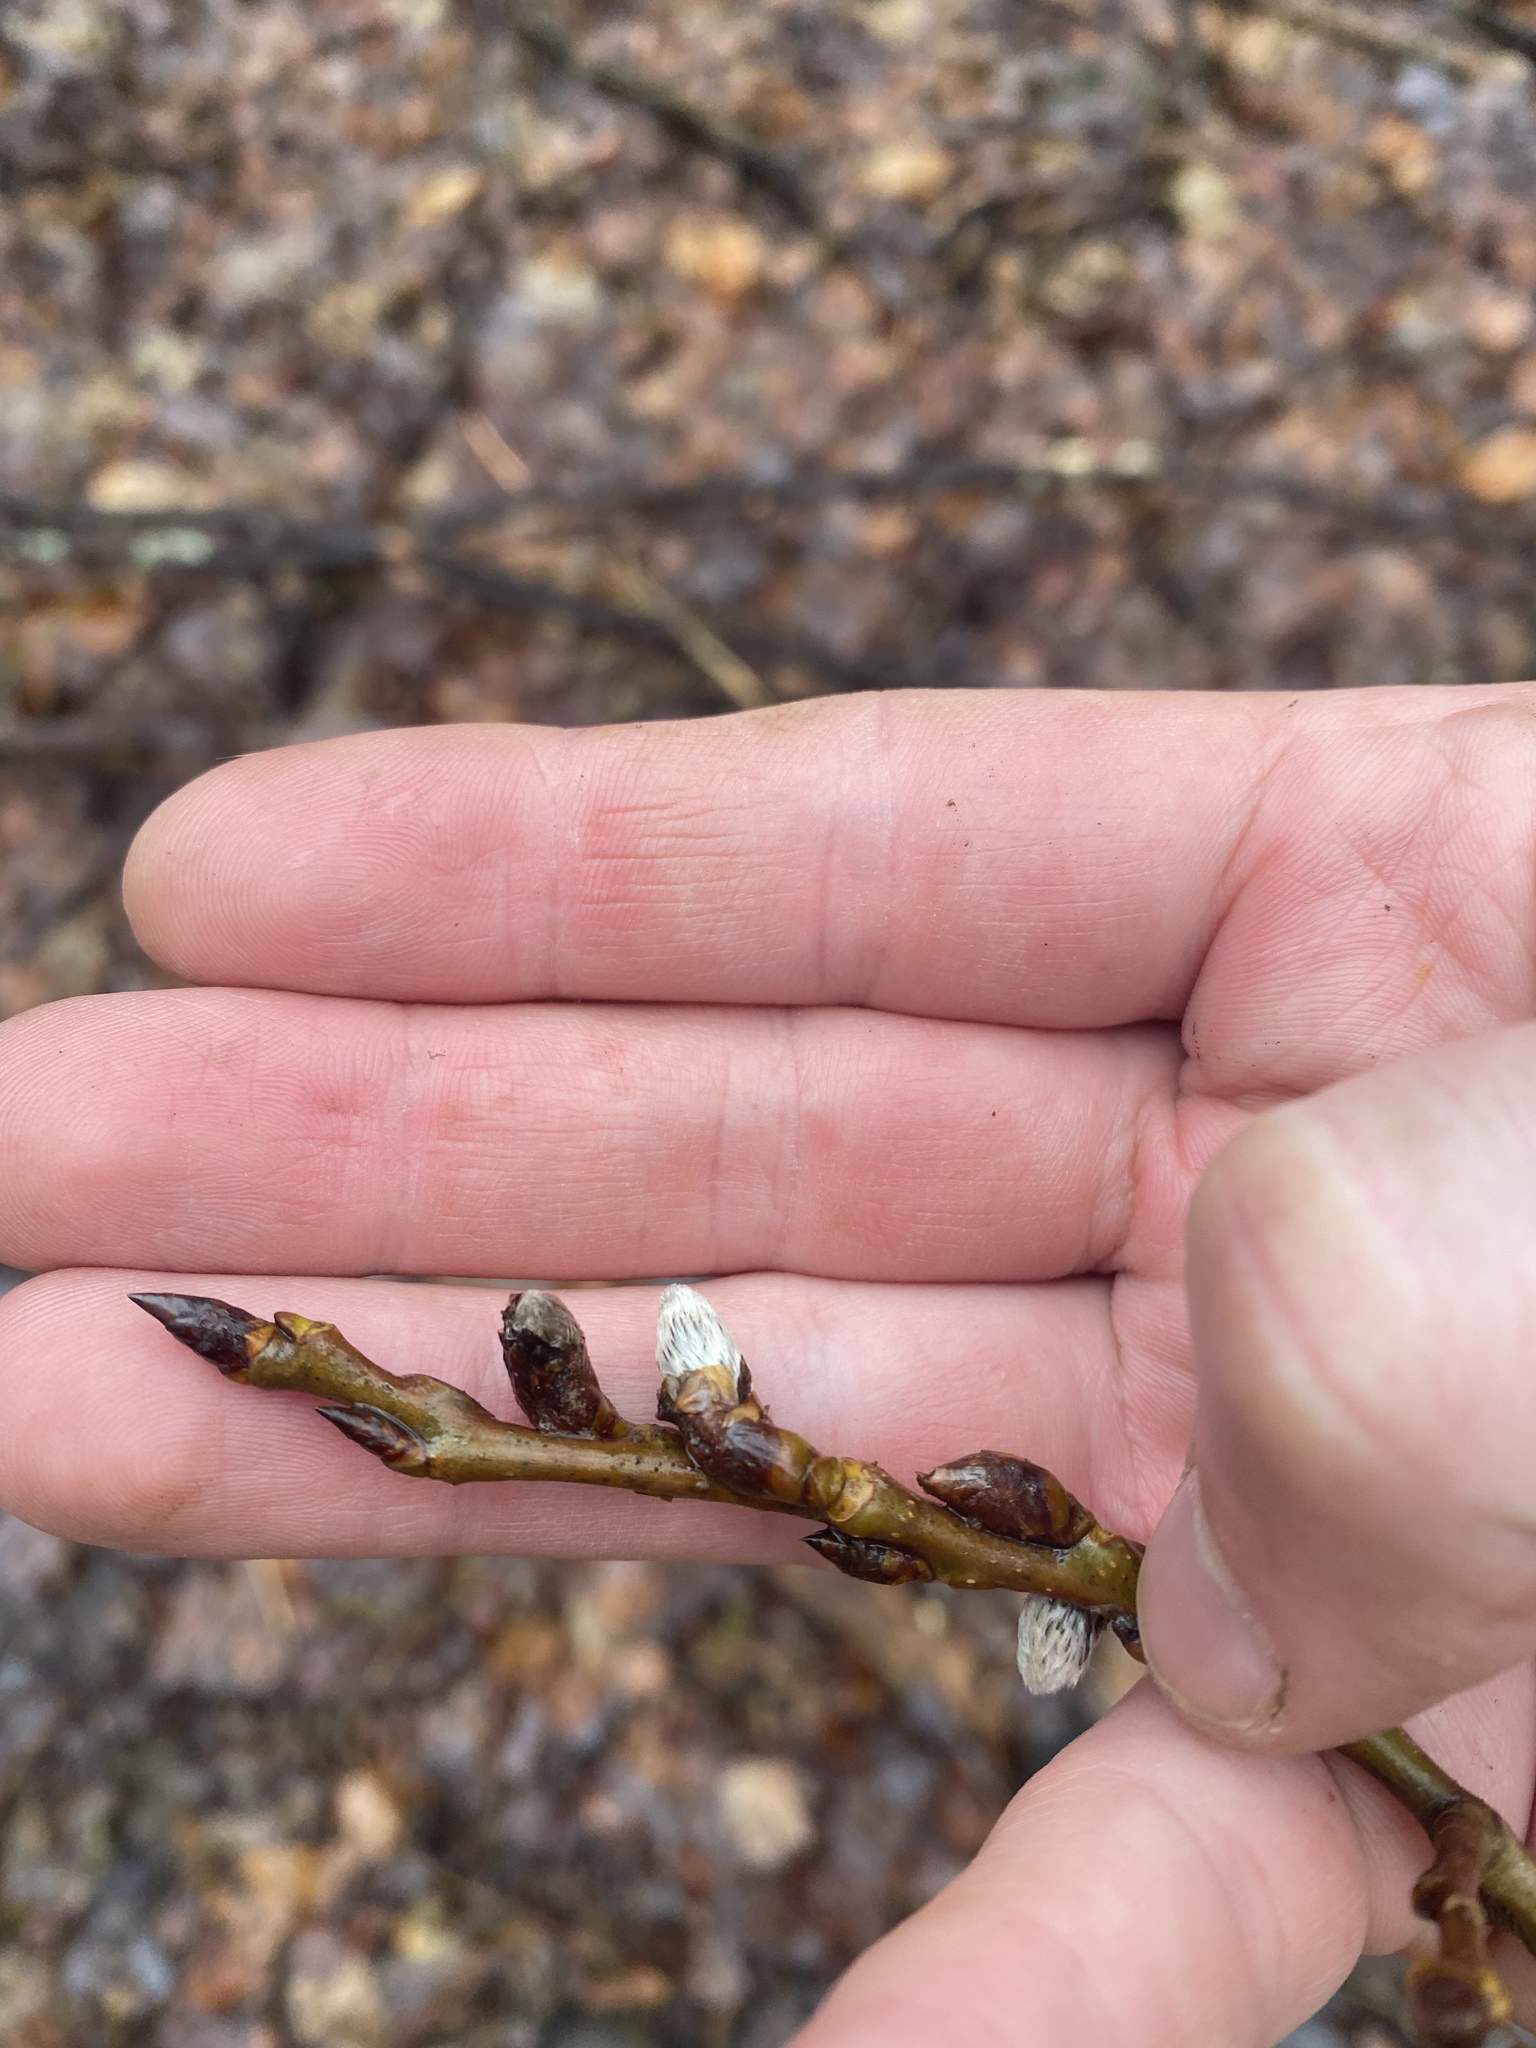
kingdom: Plantae
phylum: Tracheophyta
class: Magnoliopsida
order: Malpighiales
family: Salicaceae
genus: Salix
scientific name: Salix discolor
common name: Glaucous willow
